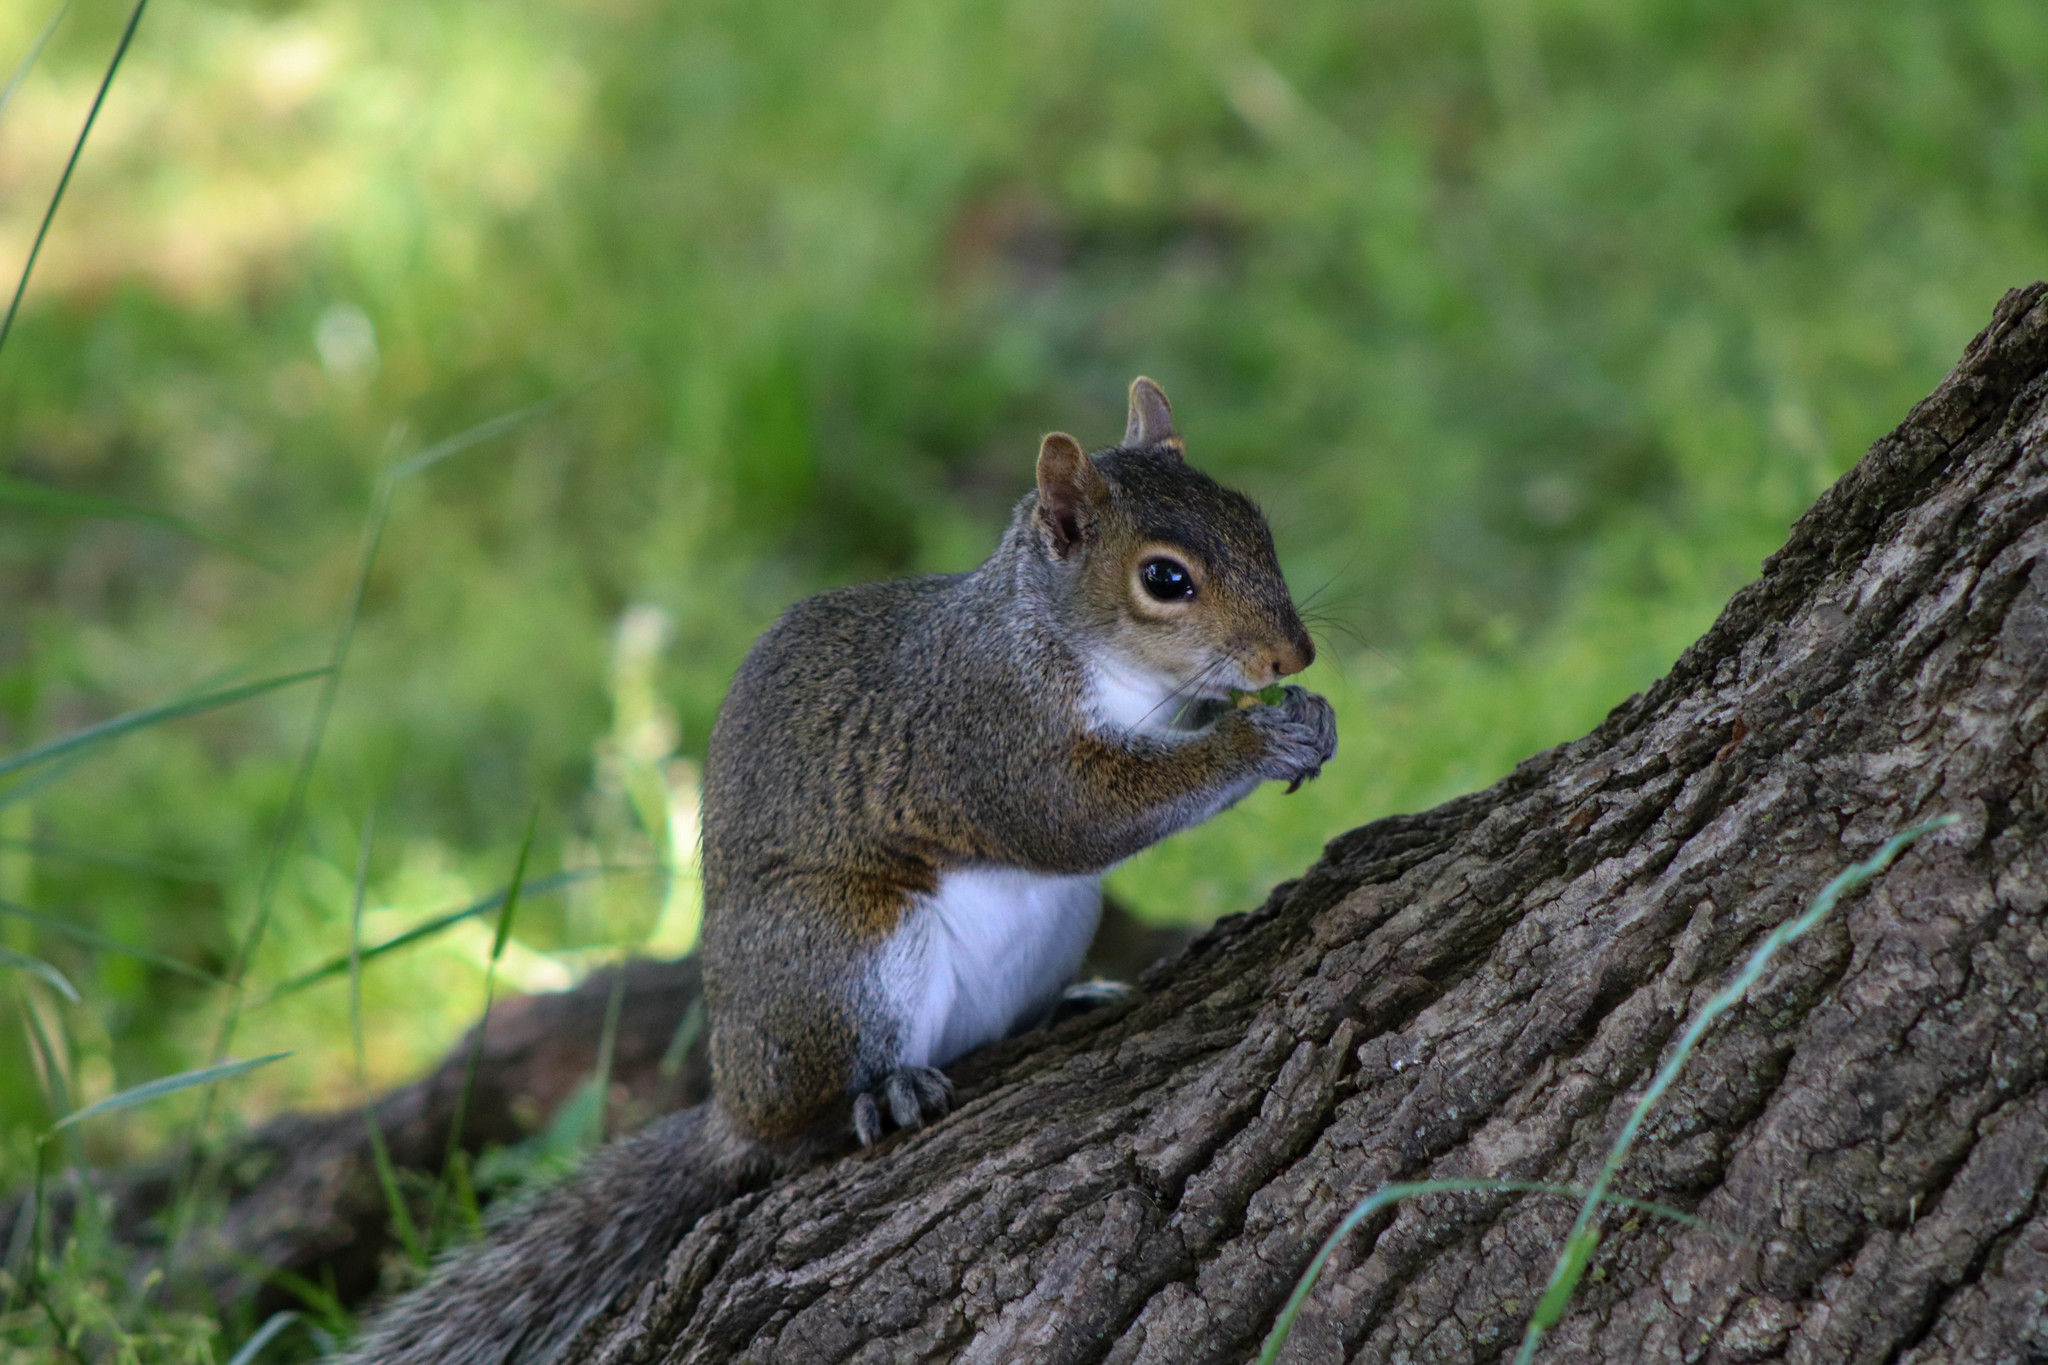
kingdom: Animalia
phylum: Chordata
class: Mammalia
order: Rodentia
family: Sciuridae
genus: Sciurus
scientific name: Sciurus carolinensis
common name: Eastern gray squirrel
